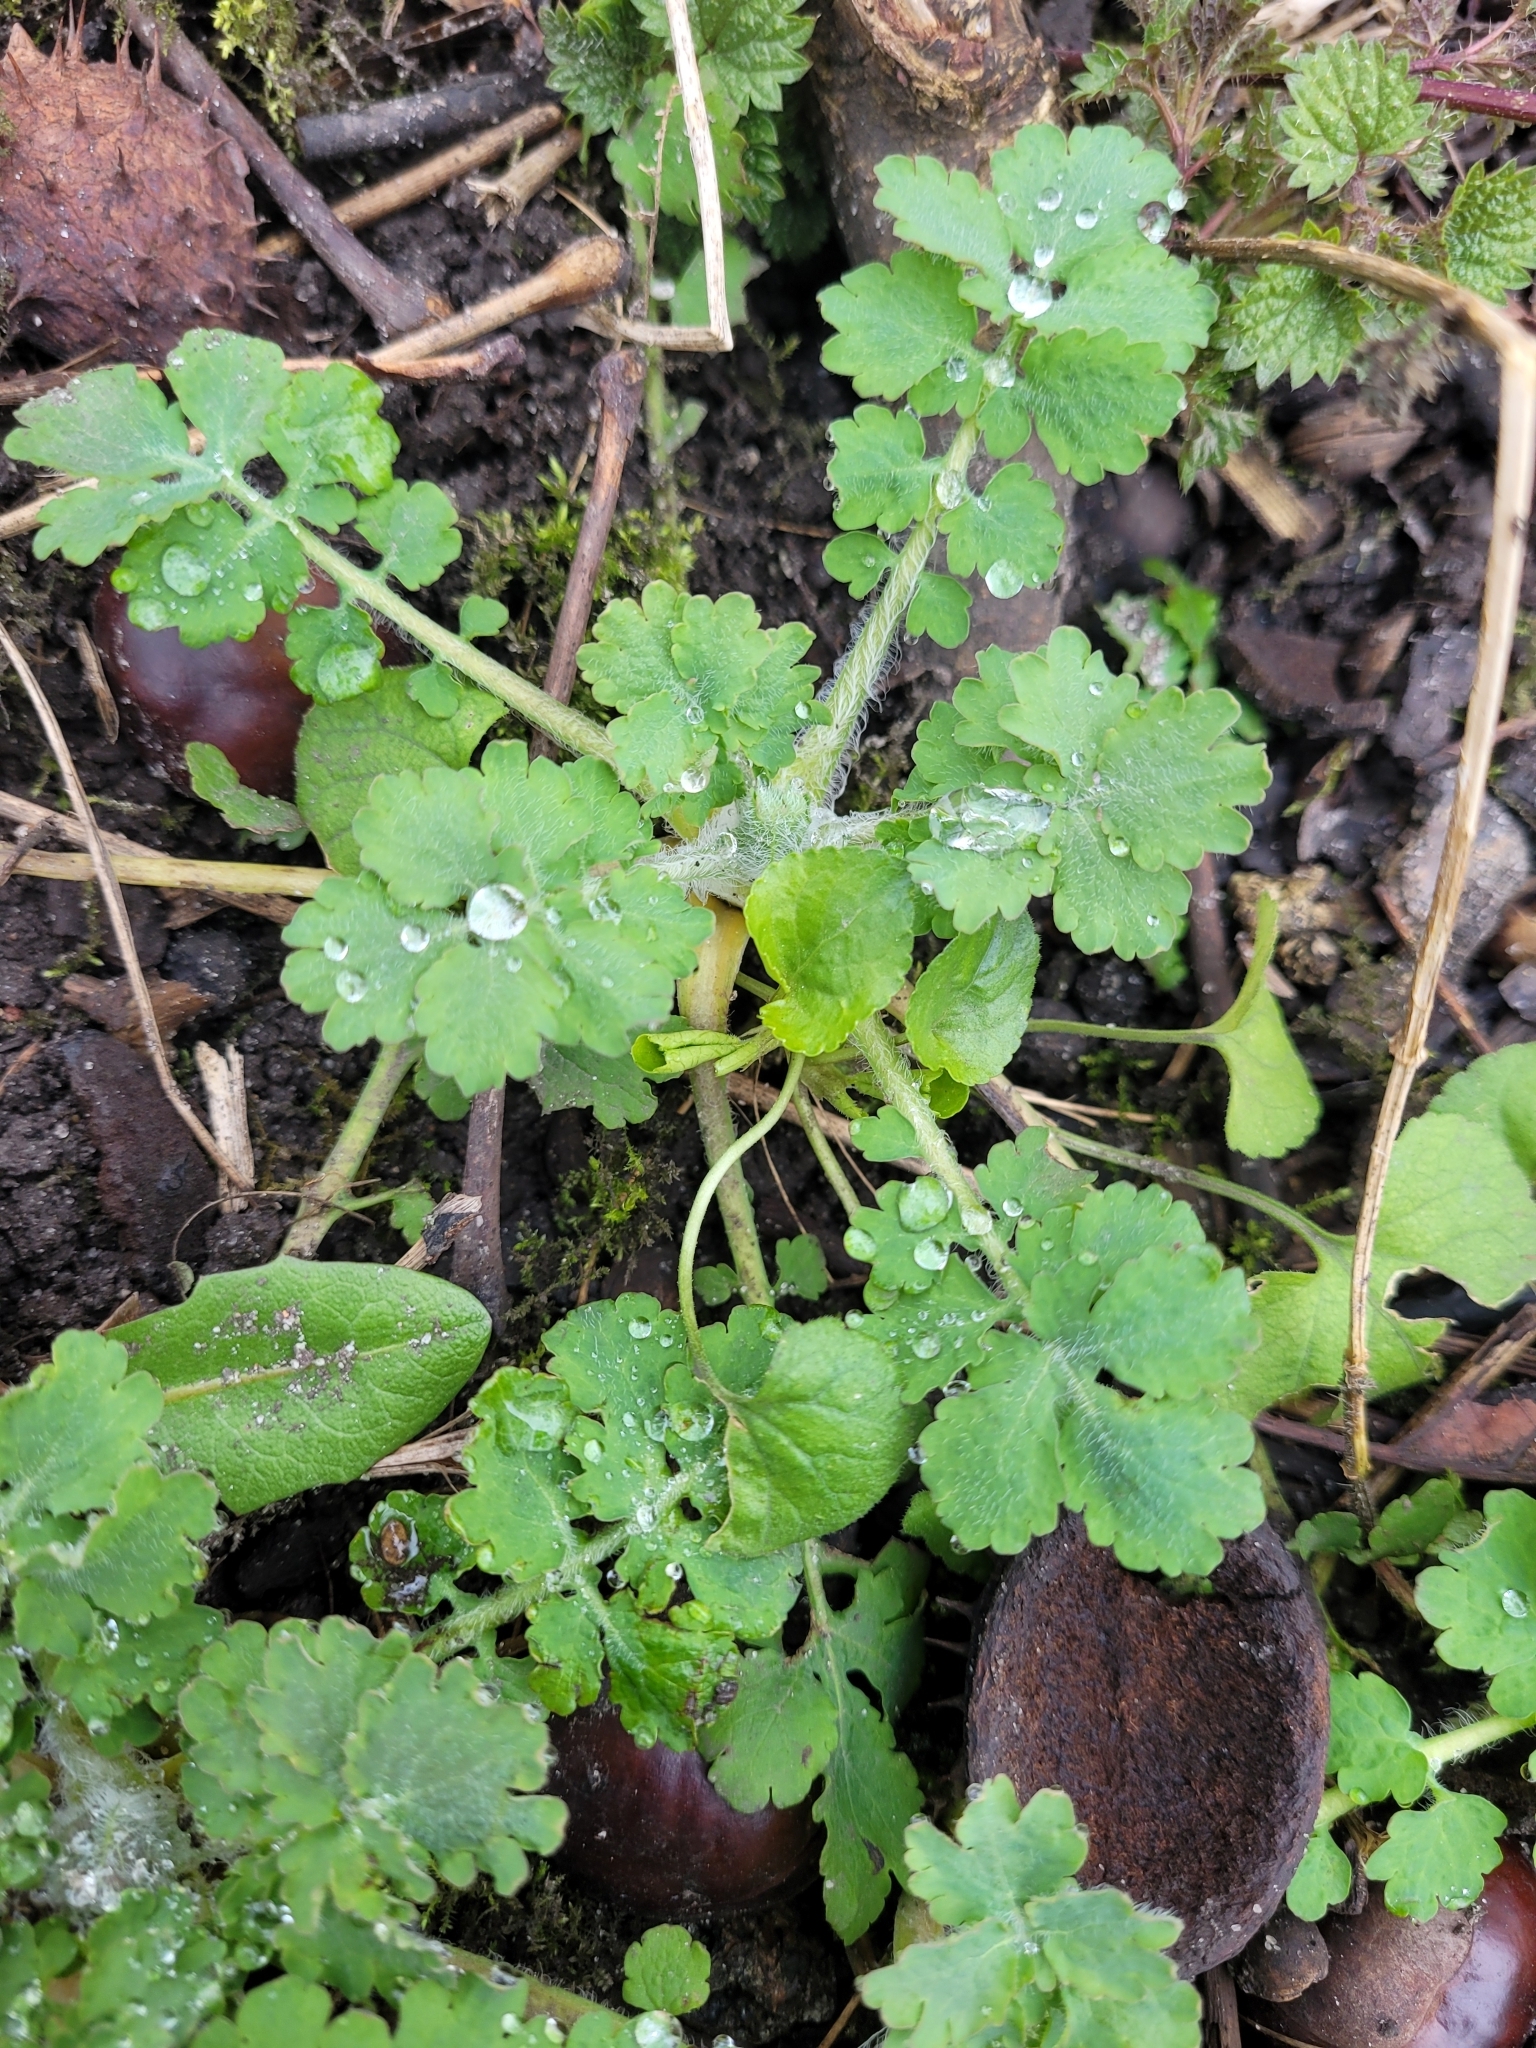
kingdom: Plantae
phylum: Tracheophyta
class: Magnoliopsida
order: Ranunculales
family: Papaveraceae
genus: Chelidonium
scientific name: Chelidonium majus
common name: Greater celandine
